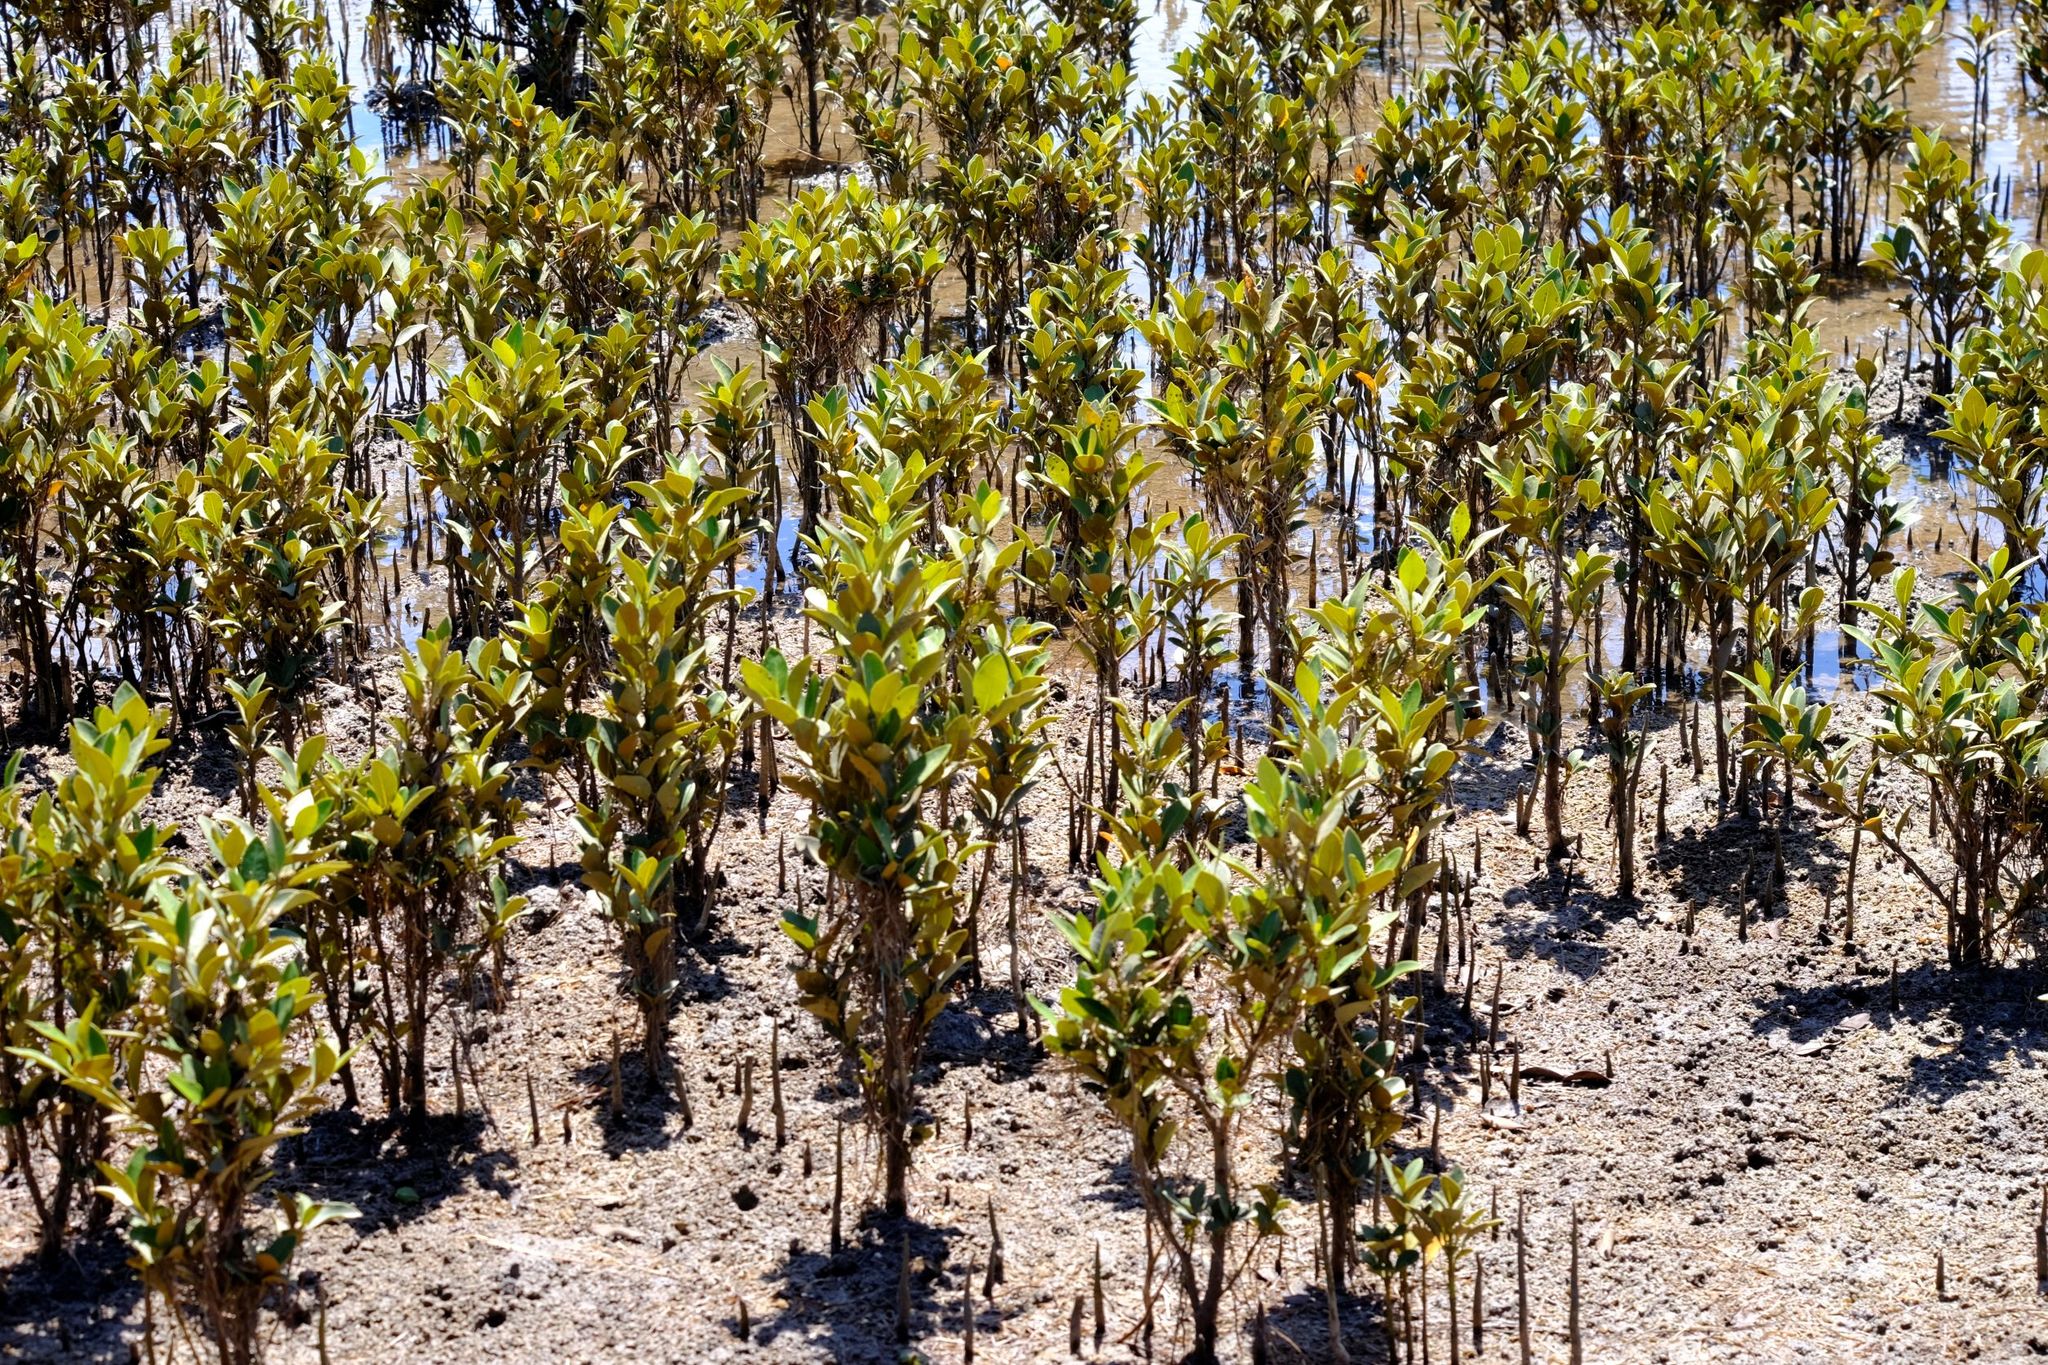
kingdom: Plantae
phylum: Tracheophyta
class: Magnoliopsida
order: Lamiales
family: Acanthaceae
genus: Avicennia
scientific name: Avicennia marina
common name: Gray mangrove
